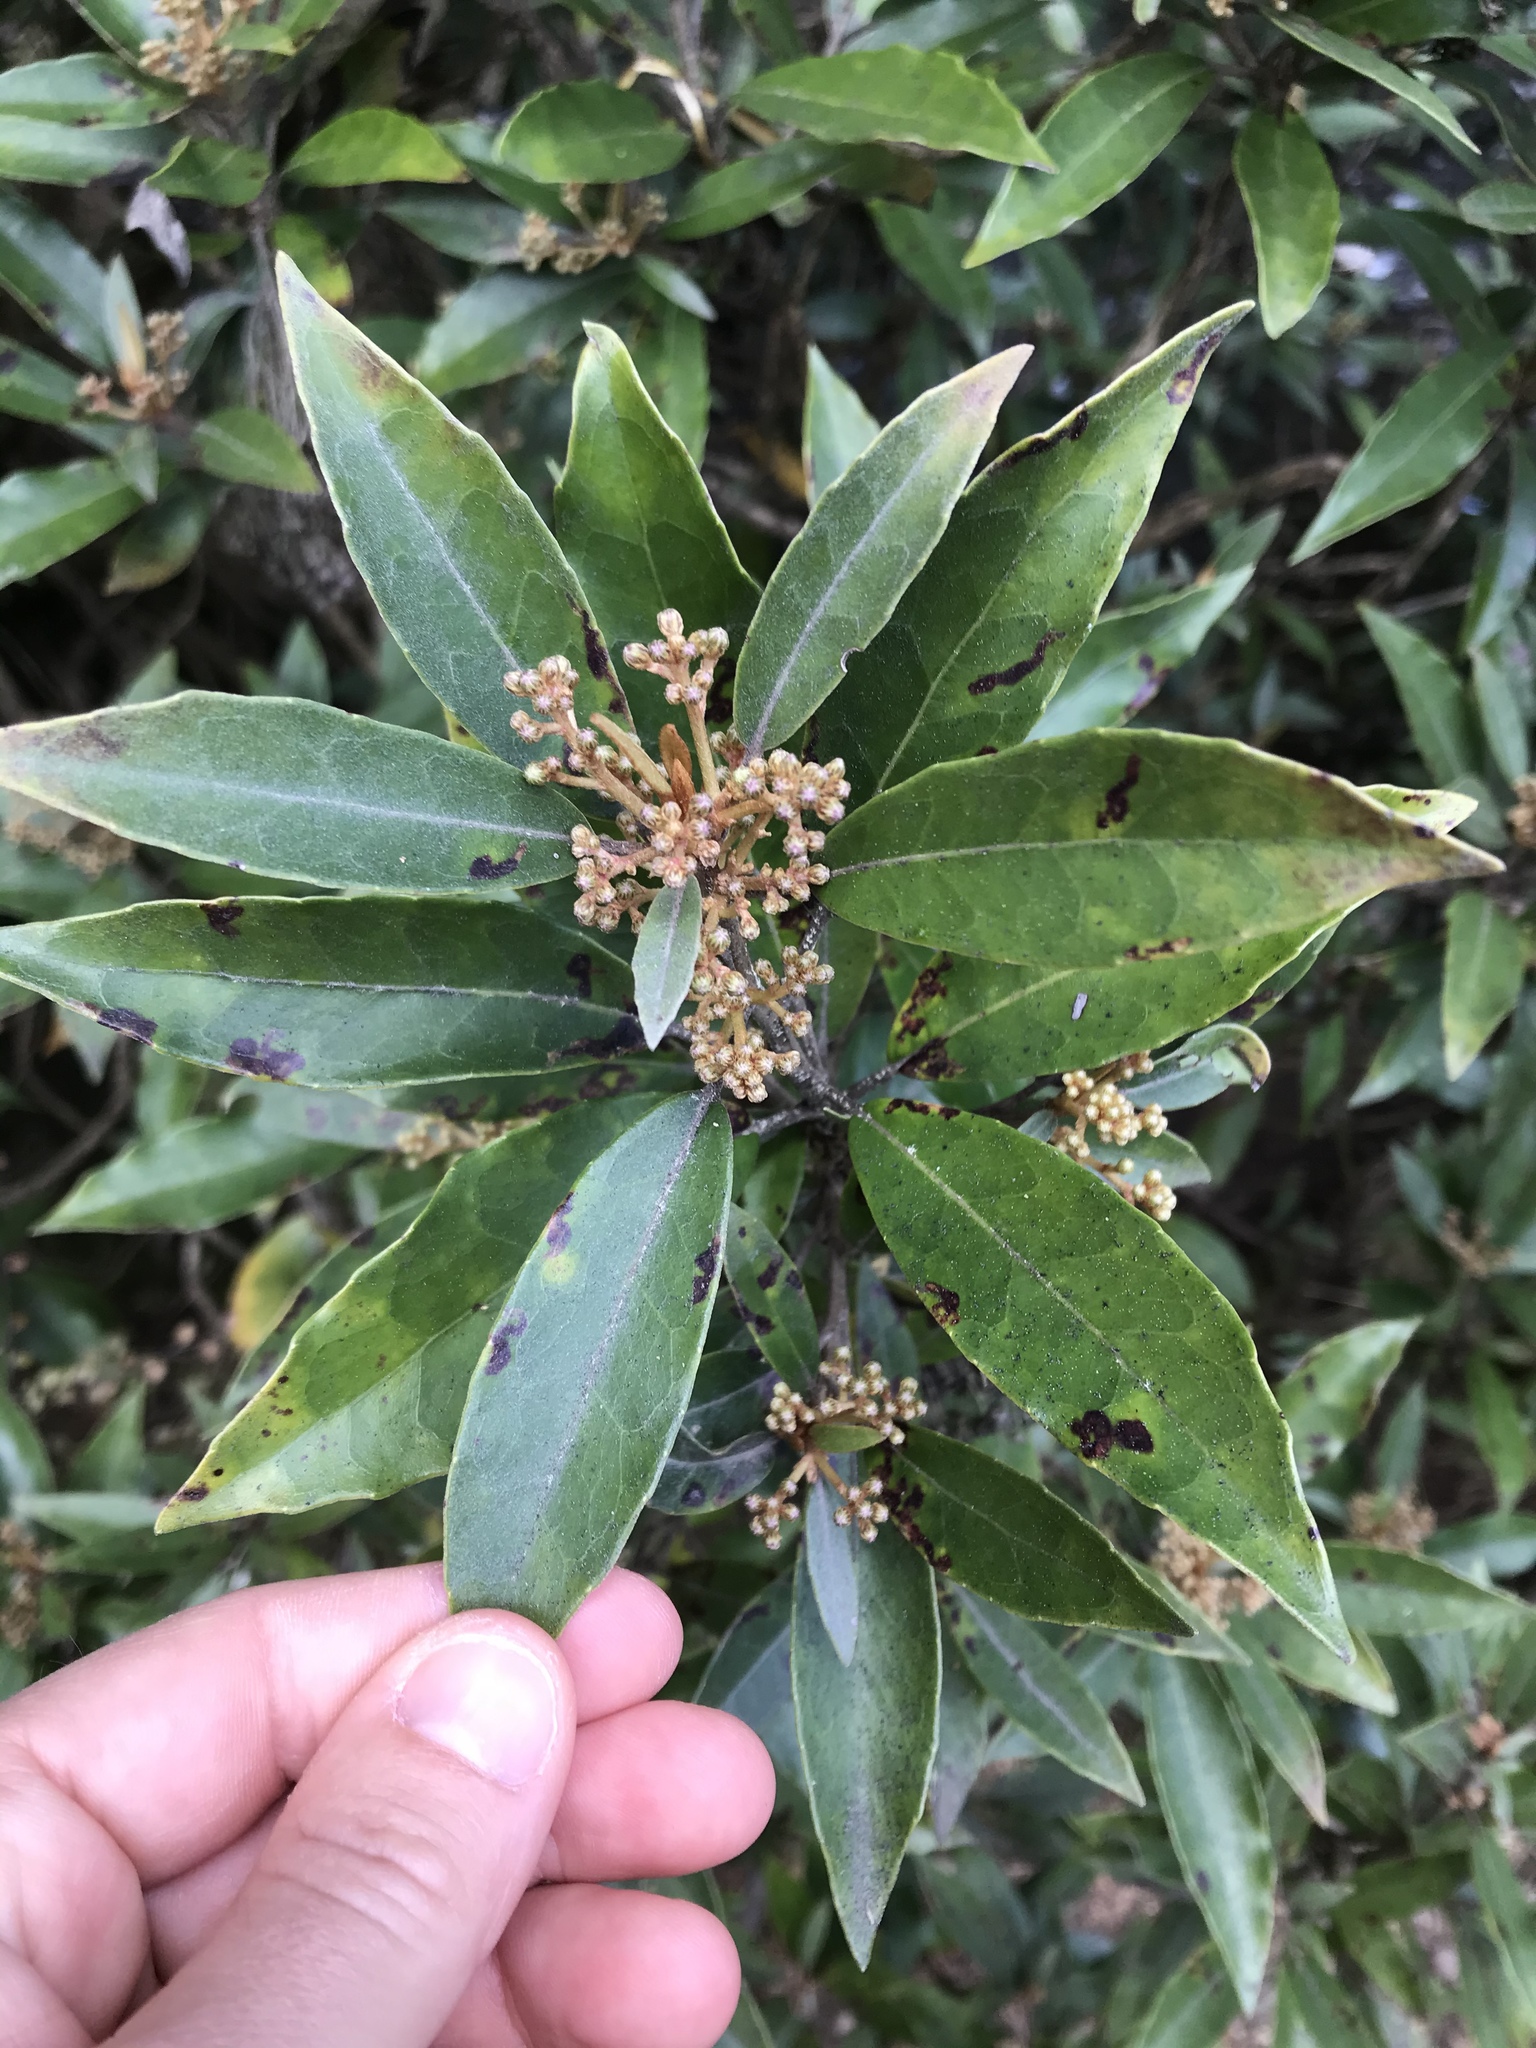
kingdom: Plantae
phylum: Tracheophyta
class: Magnoliopsida
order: Asterales
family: Asteraceae
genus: Olearia
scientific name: Olearia cheesemanii
